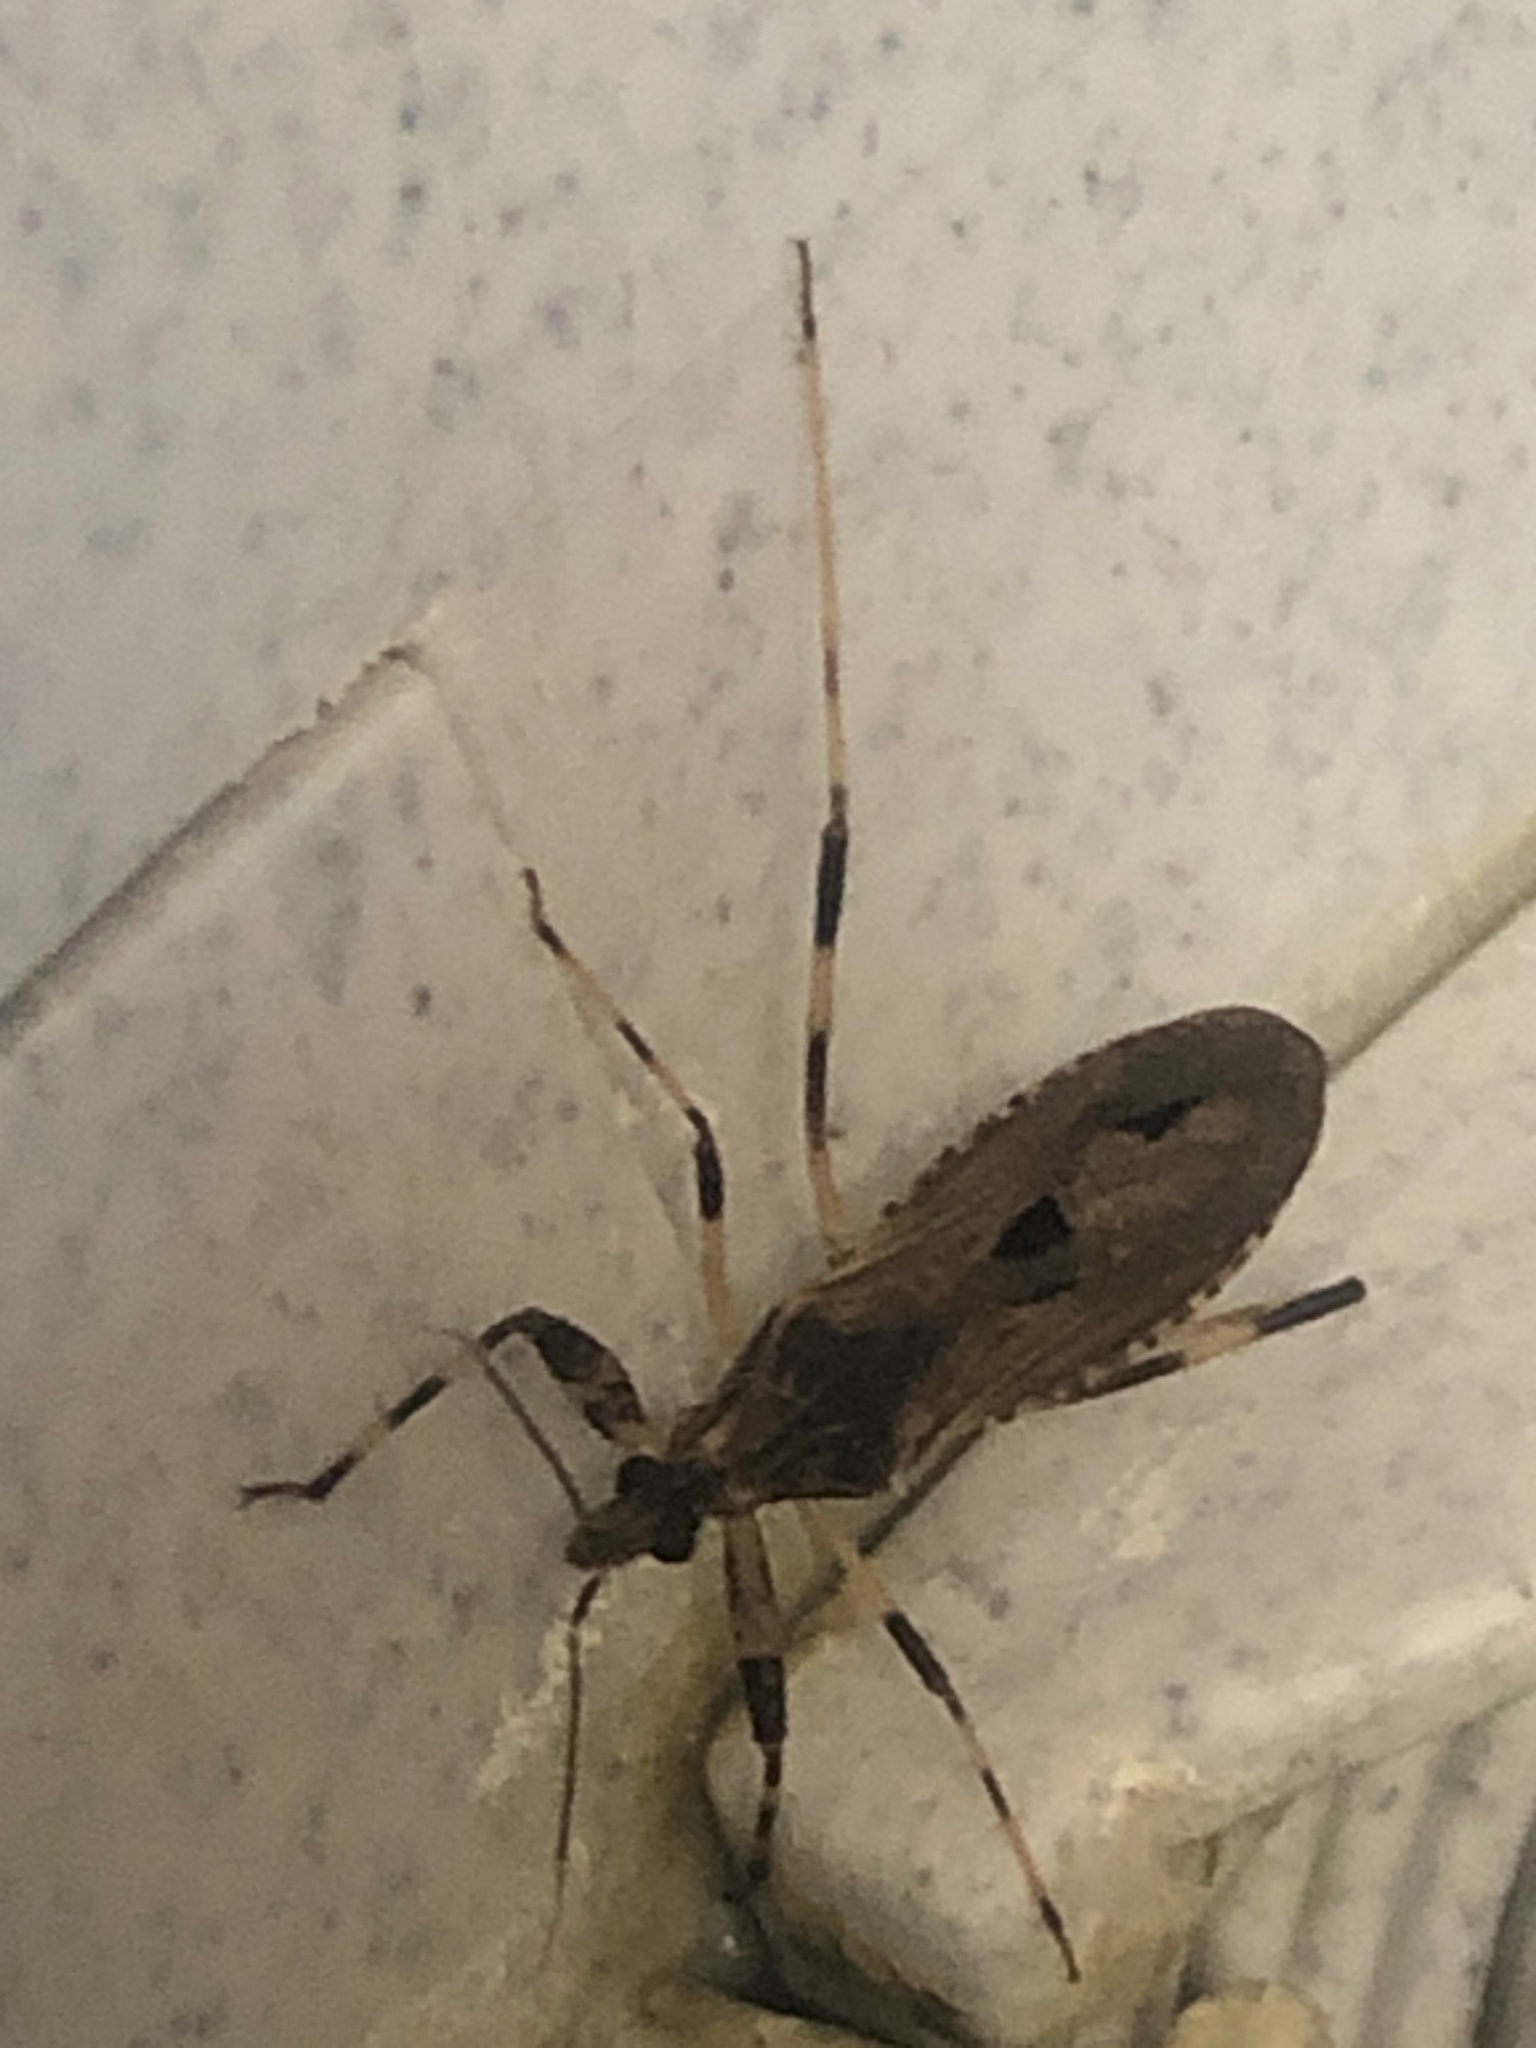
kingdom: Animalia
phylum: Arthropoda
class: Insecta
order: Hemiptera
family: Reduviidae
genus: Oncocephalus
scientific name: Oncocephalus geniculatus
